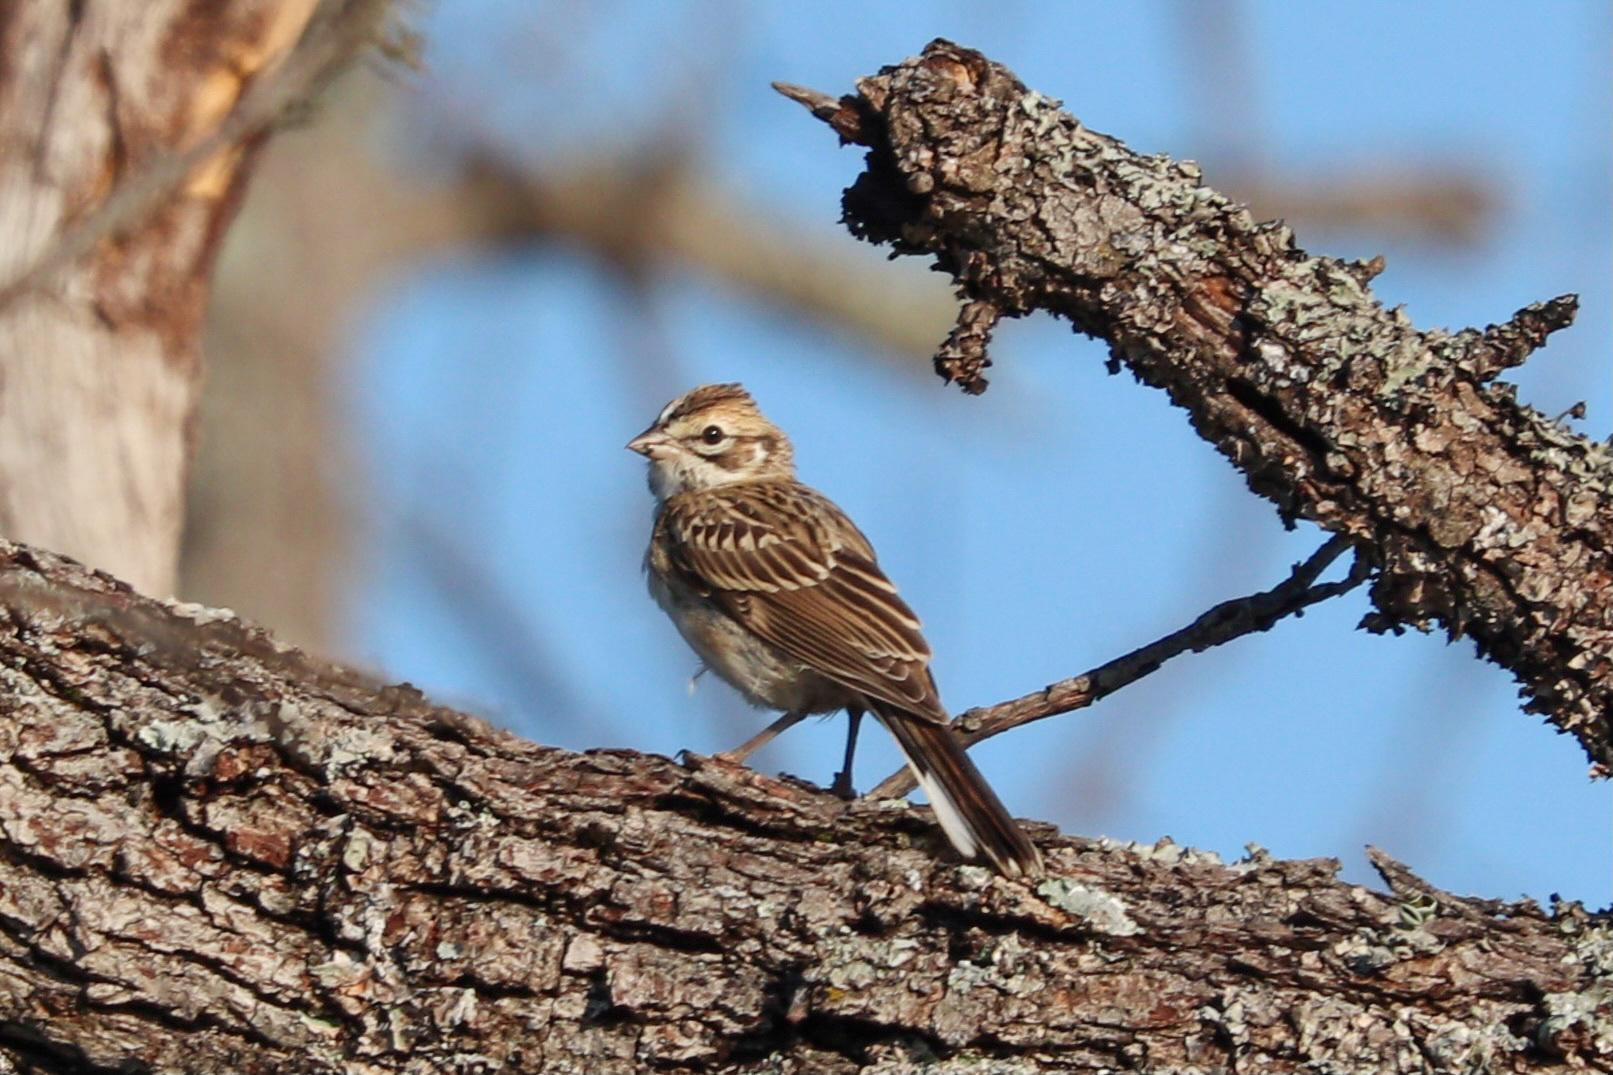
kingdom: Animalia
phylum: Chordata
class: Aves
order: Passeriformes
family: Passerellidae
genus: Chondestes
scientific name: Chondestes grammacus
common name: Lark sparrow
